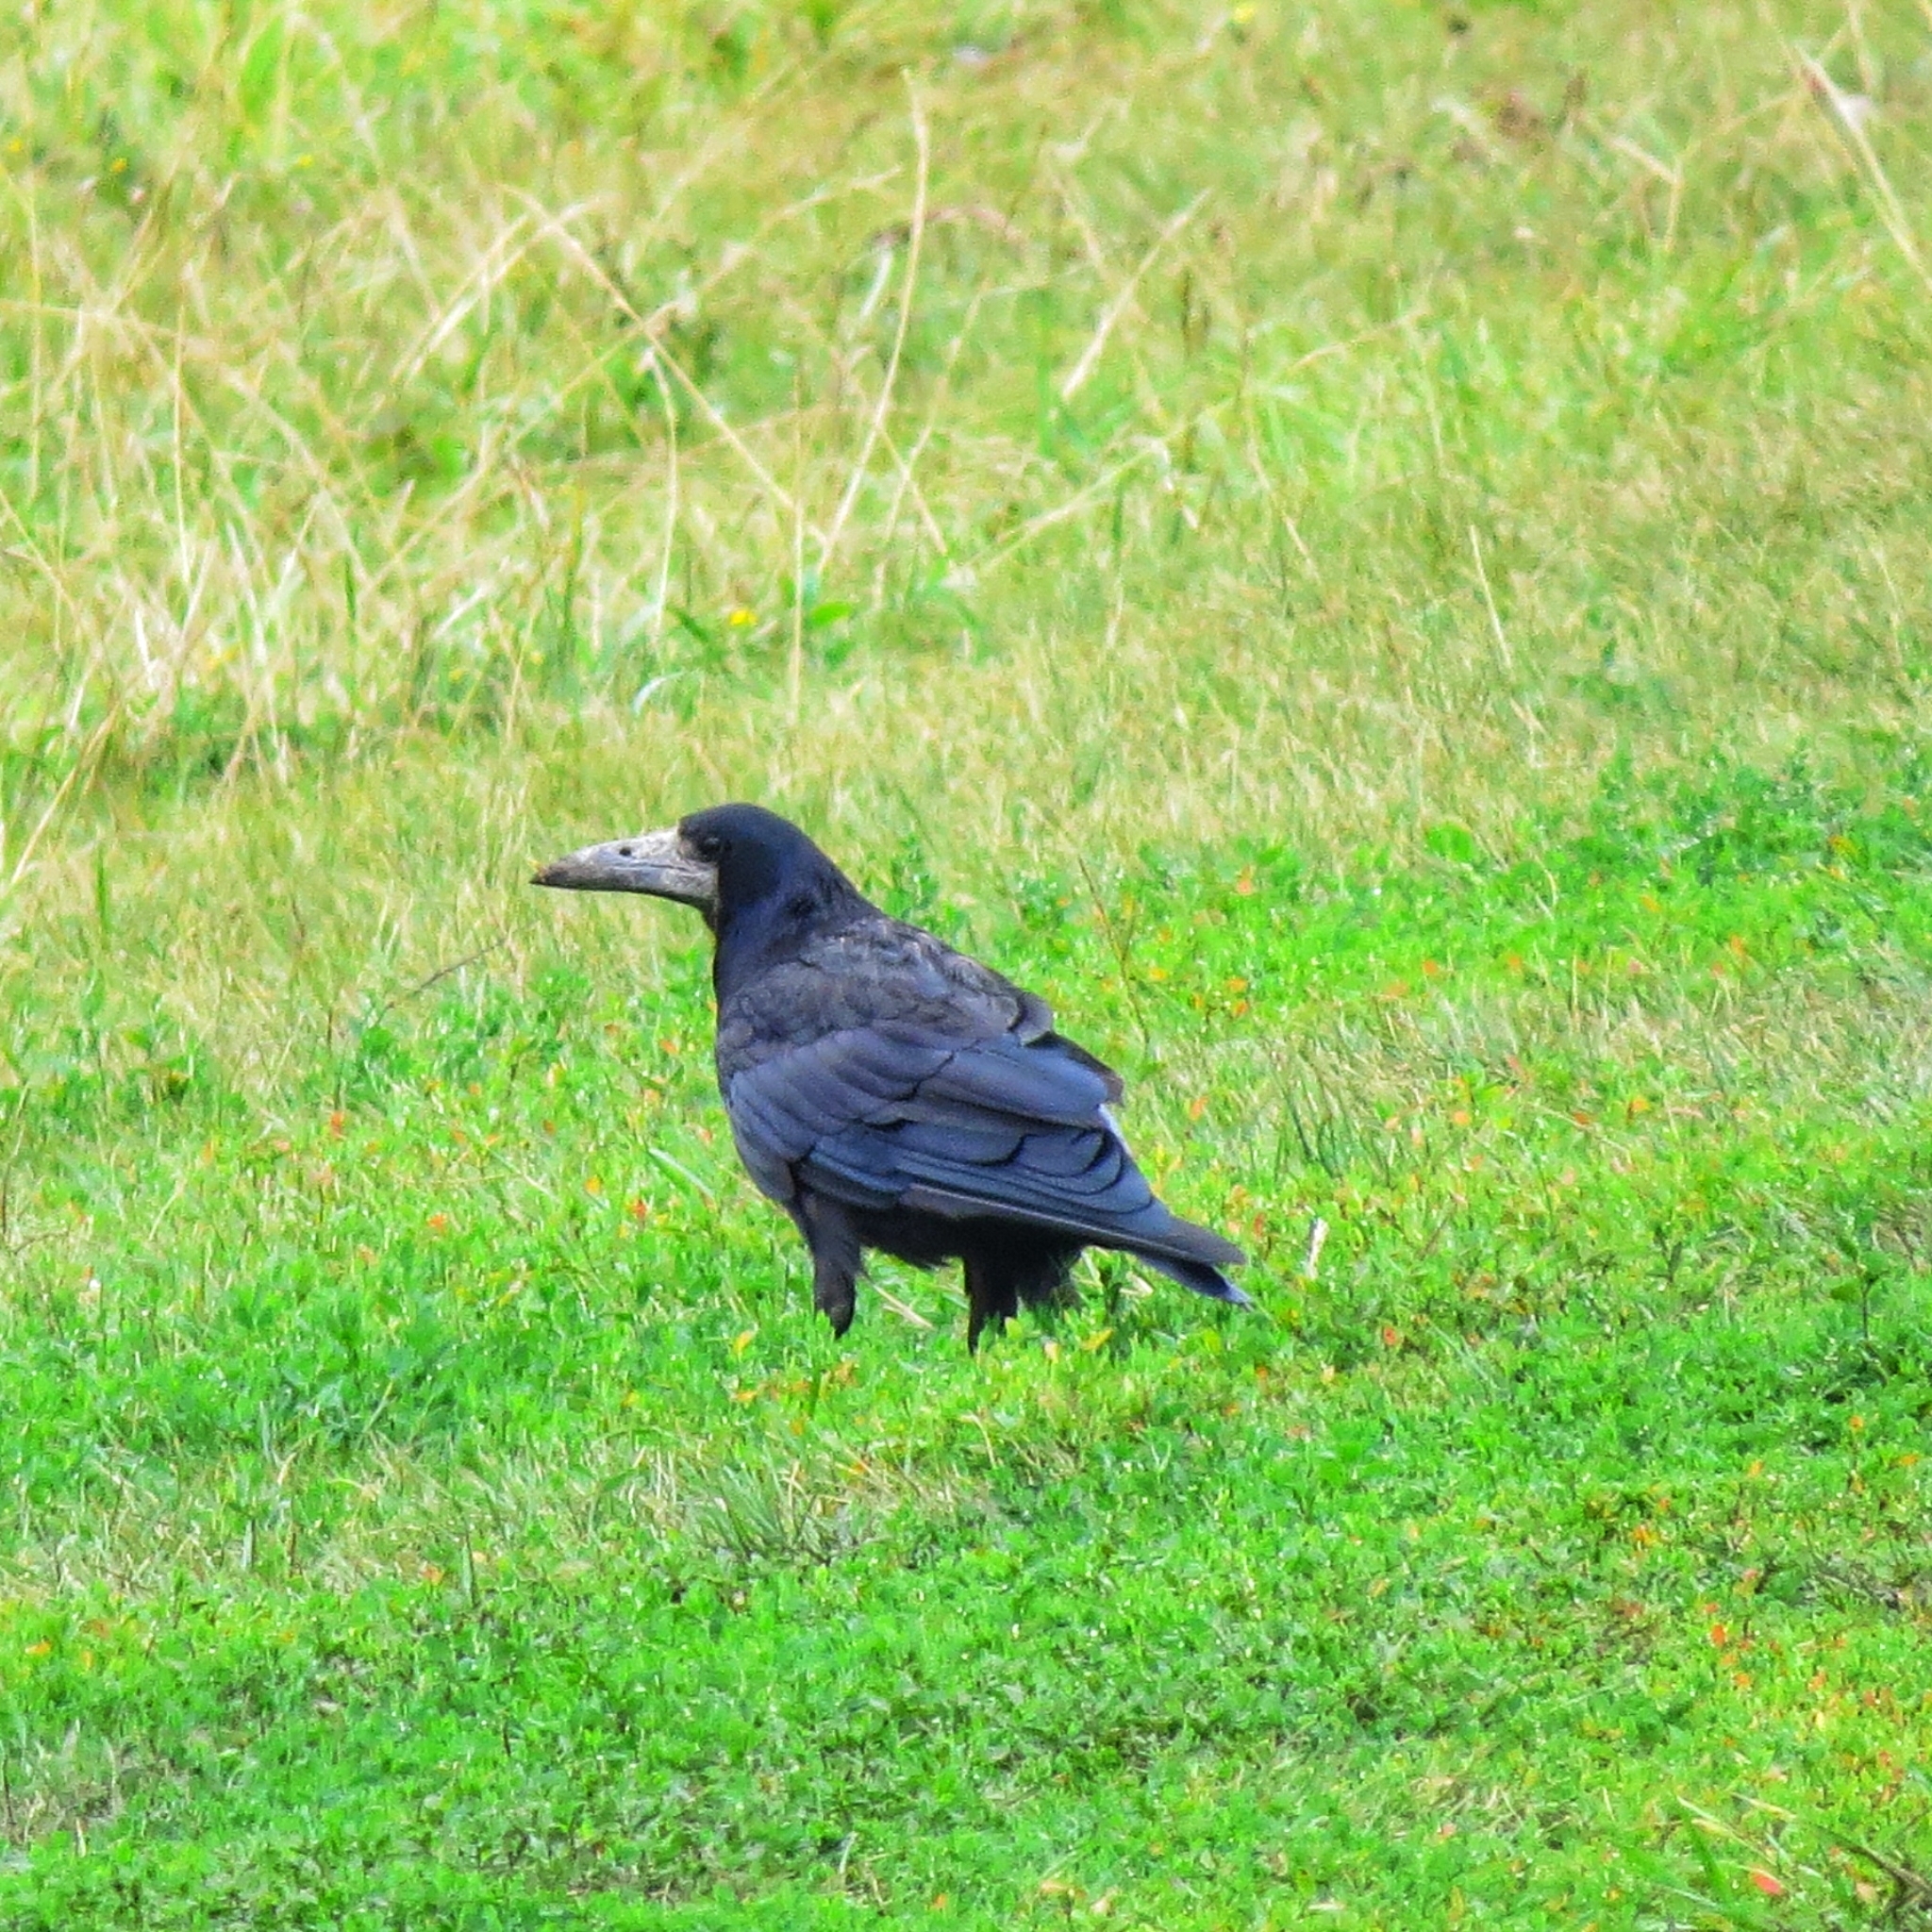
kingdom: Animalia
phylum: Chordata
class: Aves
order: Passeriformes
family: Corvidae
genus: Corvus
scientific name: Corvus frugilegus
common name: Rook
